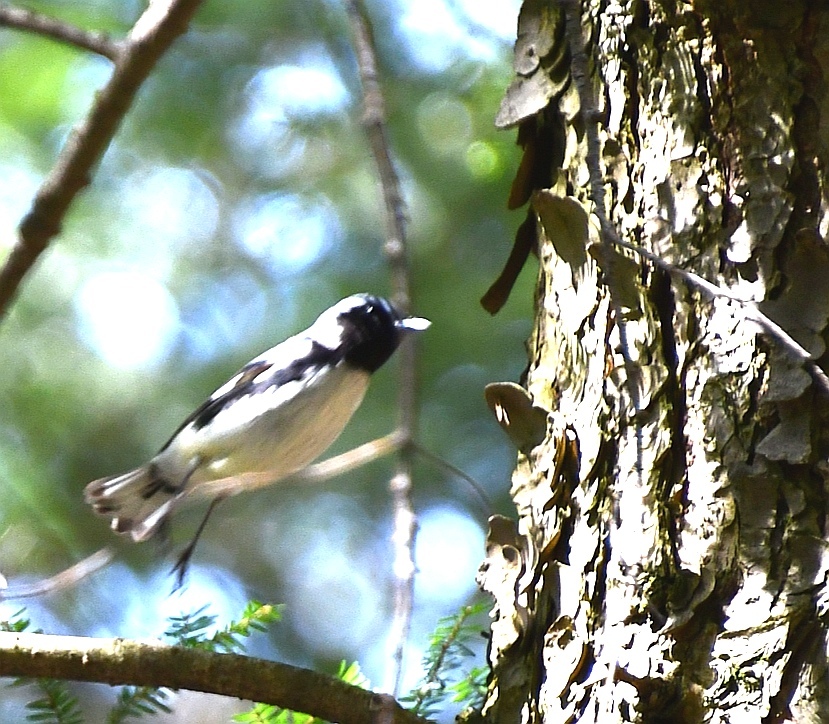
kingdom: Animalia
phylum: Chordata
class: Aves
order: Passeriformes
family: Parulidae
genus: Setophaga
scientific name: Setophaga caerulescens
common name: Black-throated blue warbler
